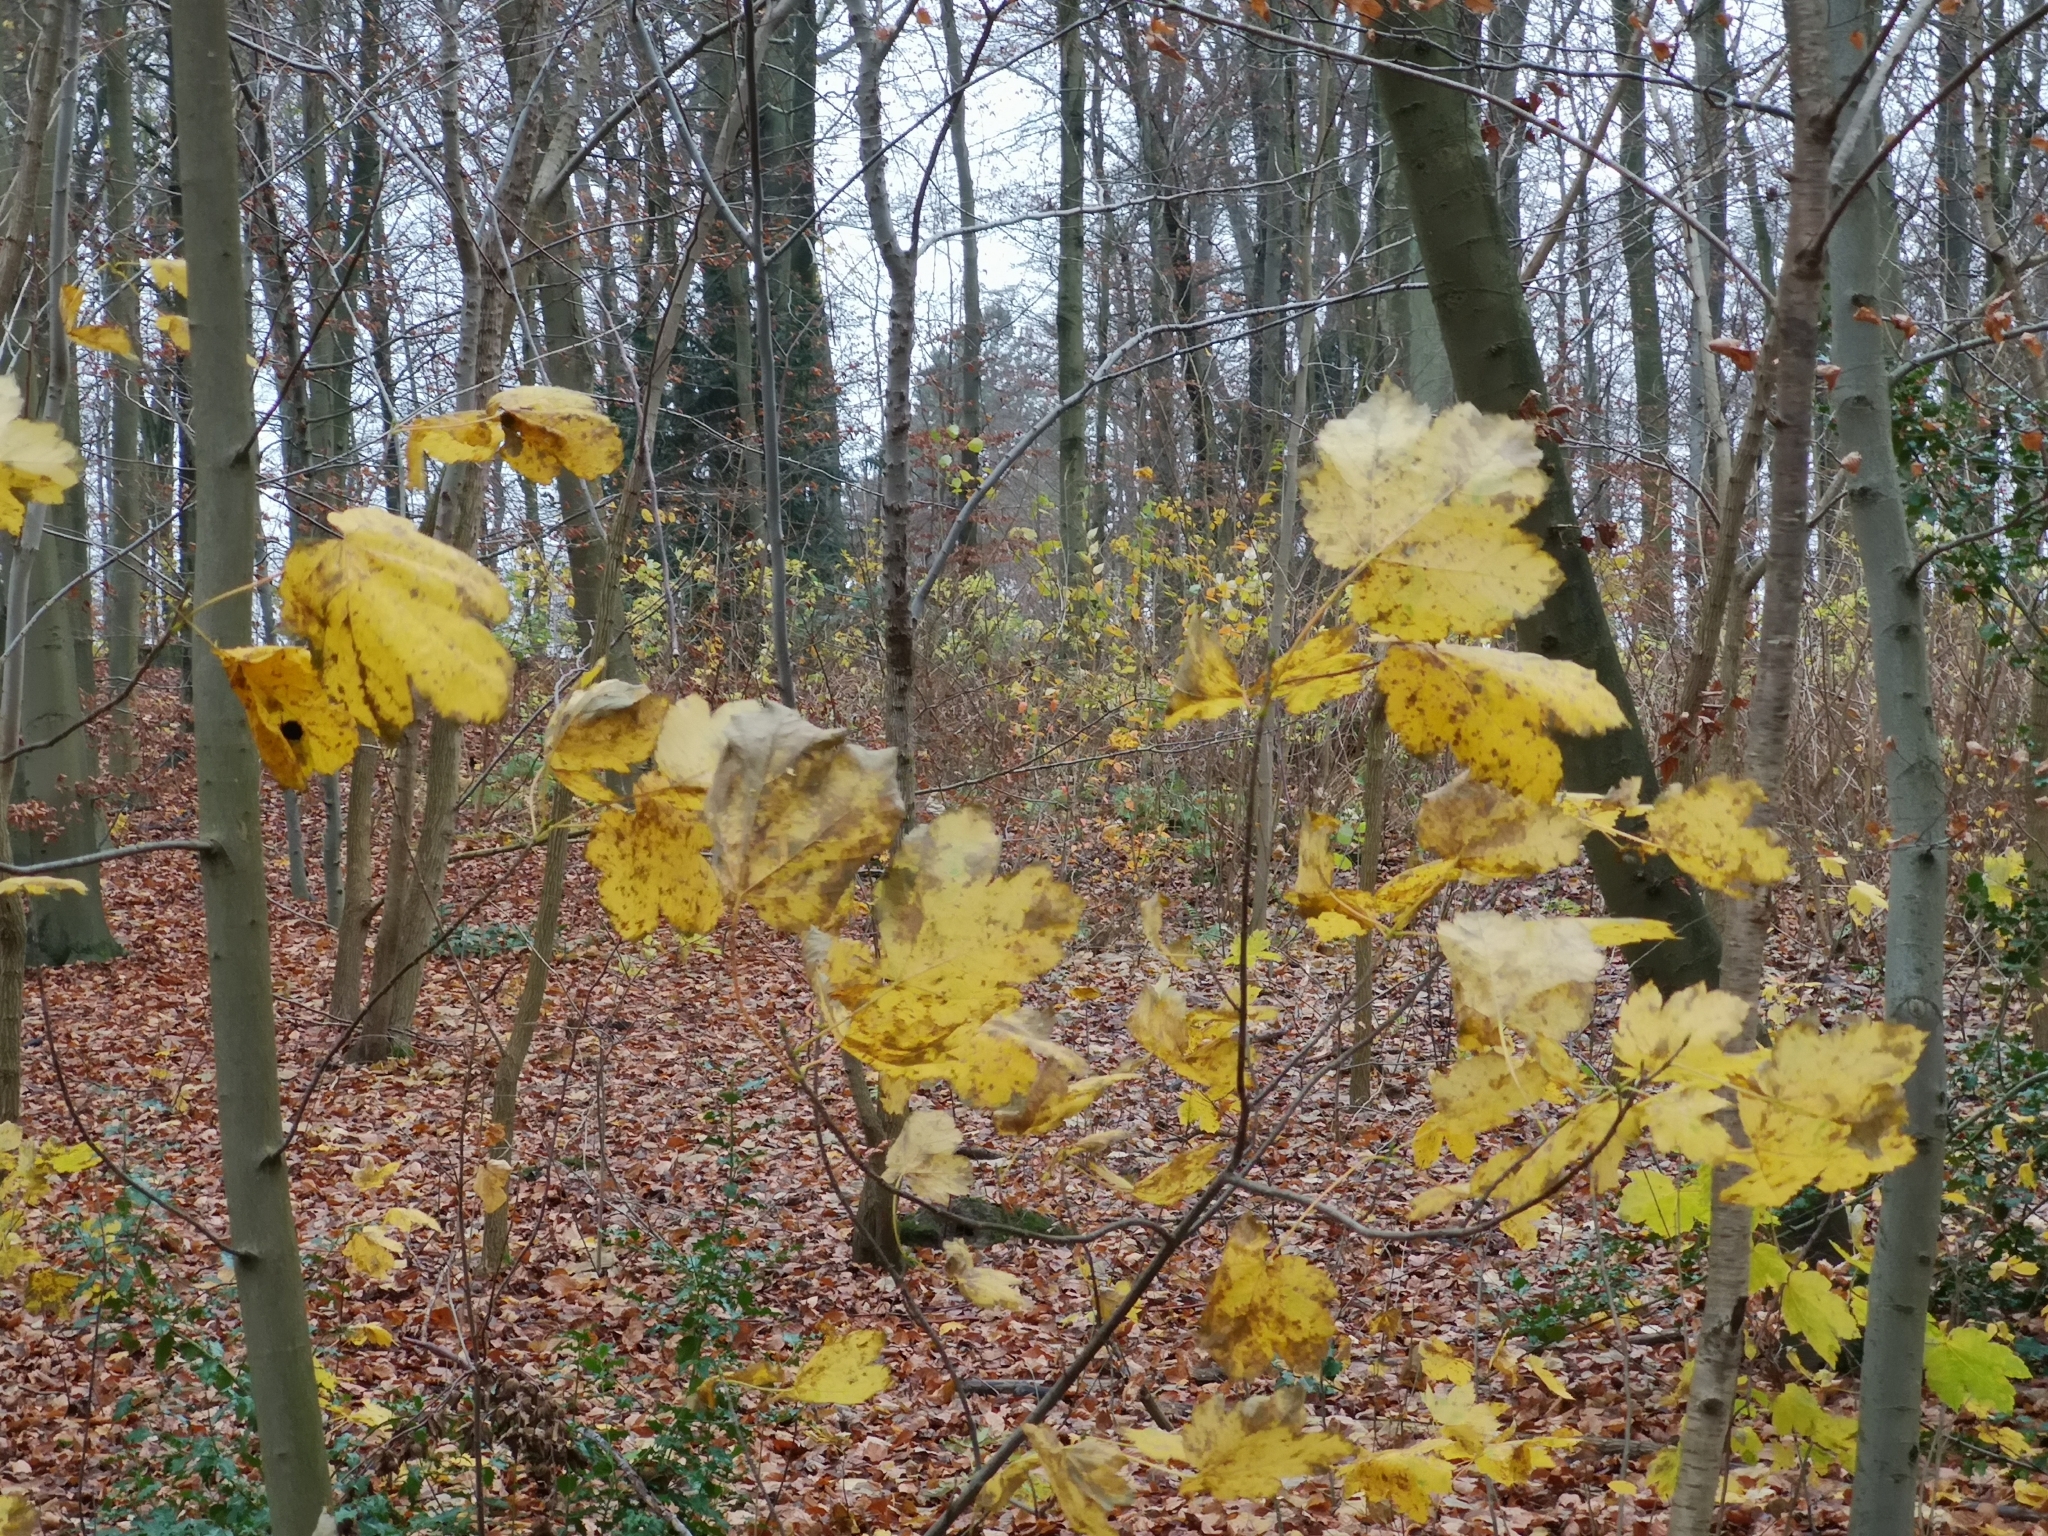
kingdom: Plantae
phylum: Tracheophyta
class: Magnoliopsida
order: Sapindales
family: Sapindaceae
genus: Acer
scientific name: Acer pseudoplatanus
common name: Sycamore
